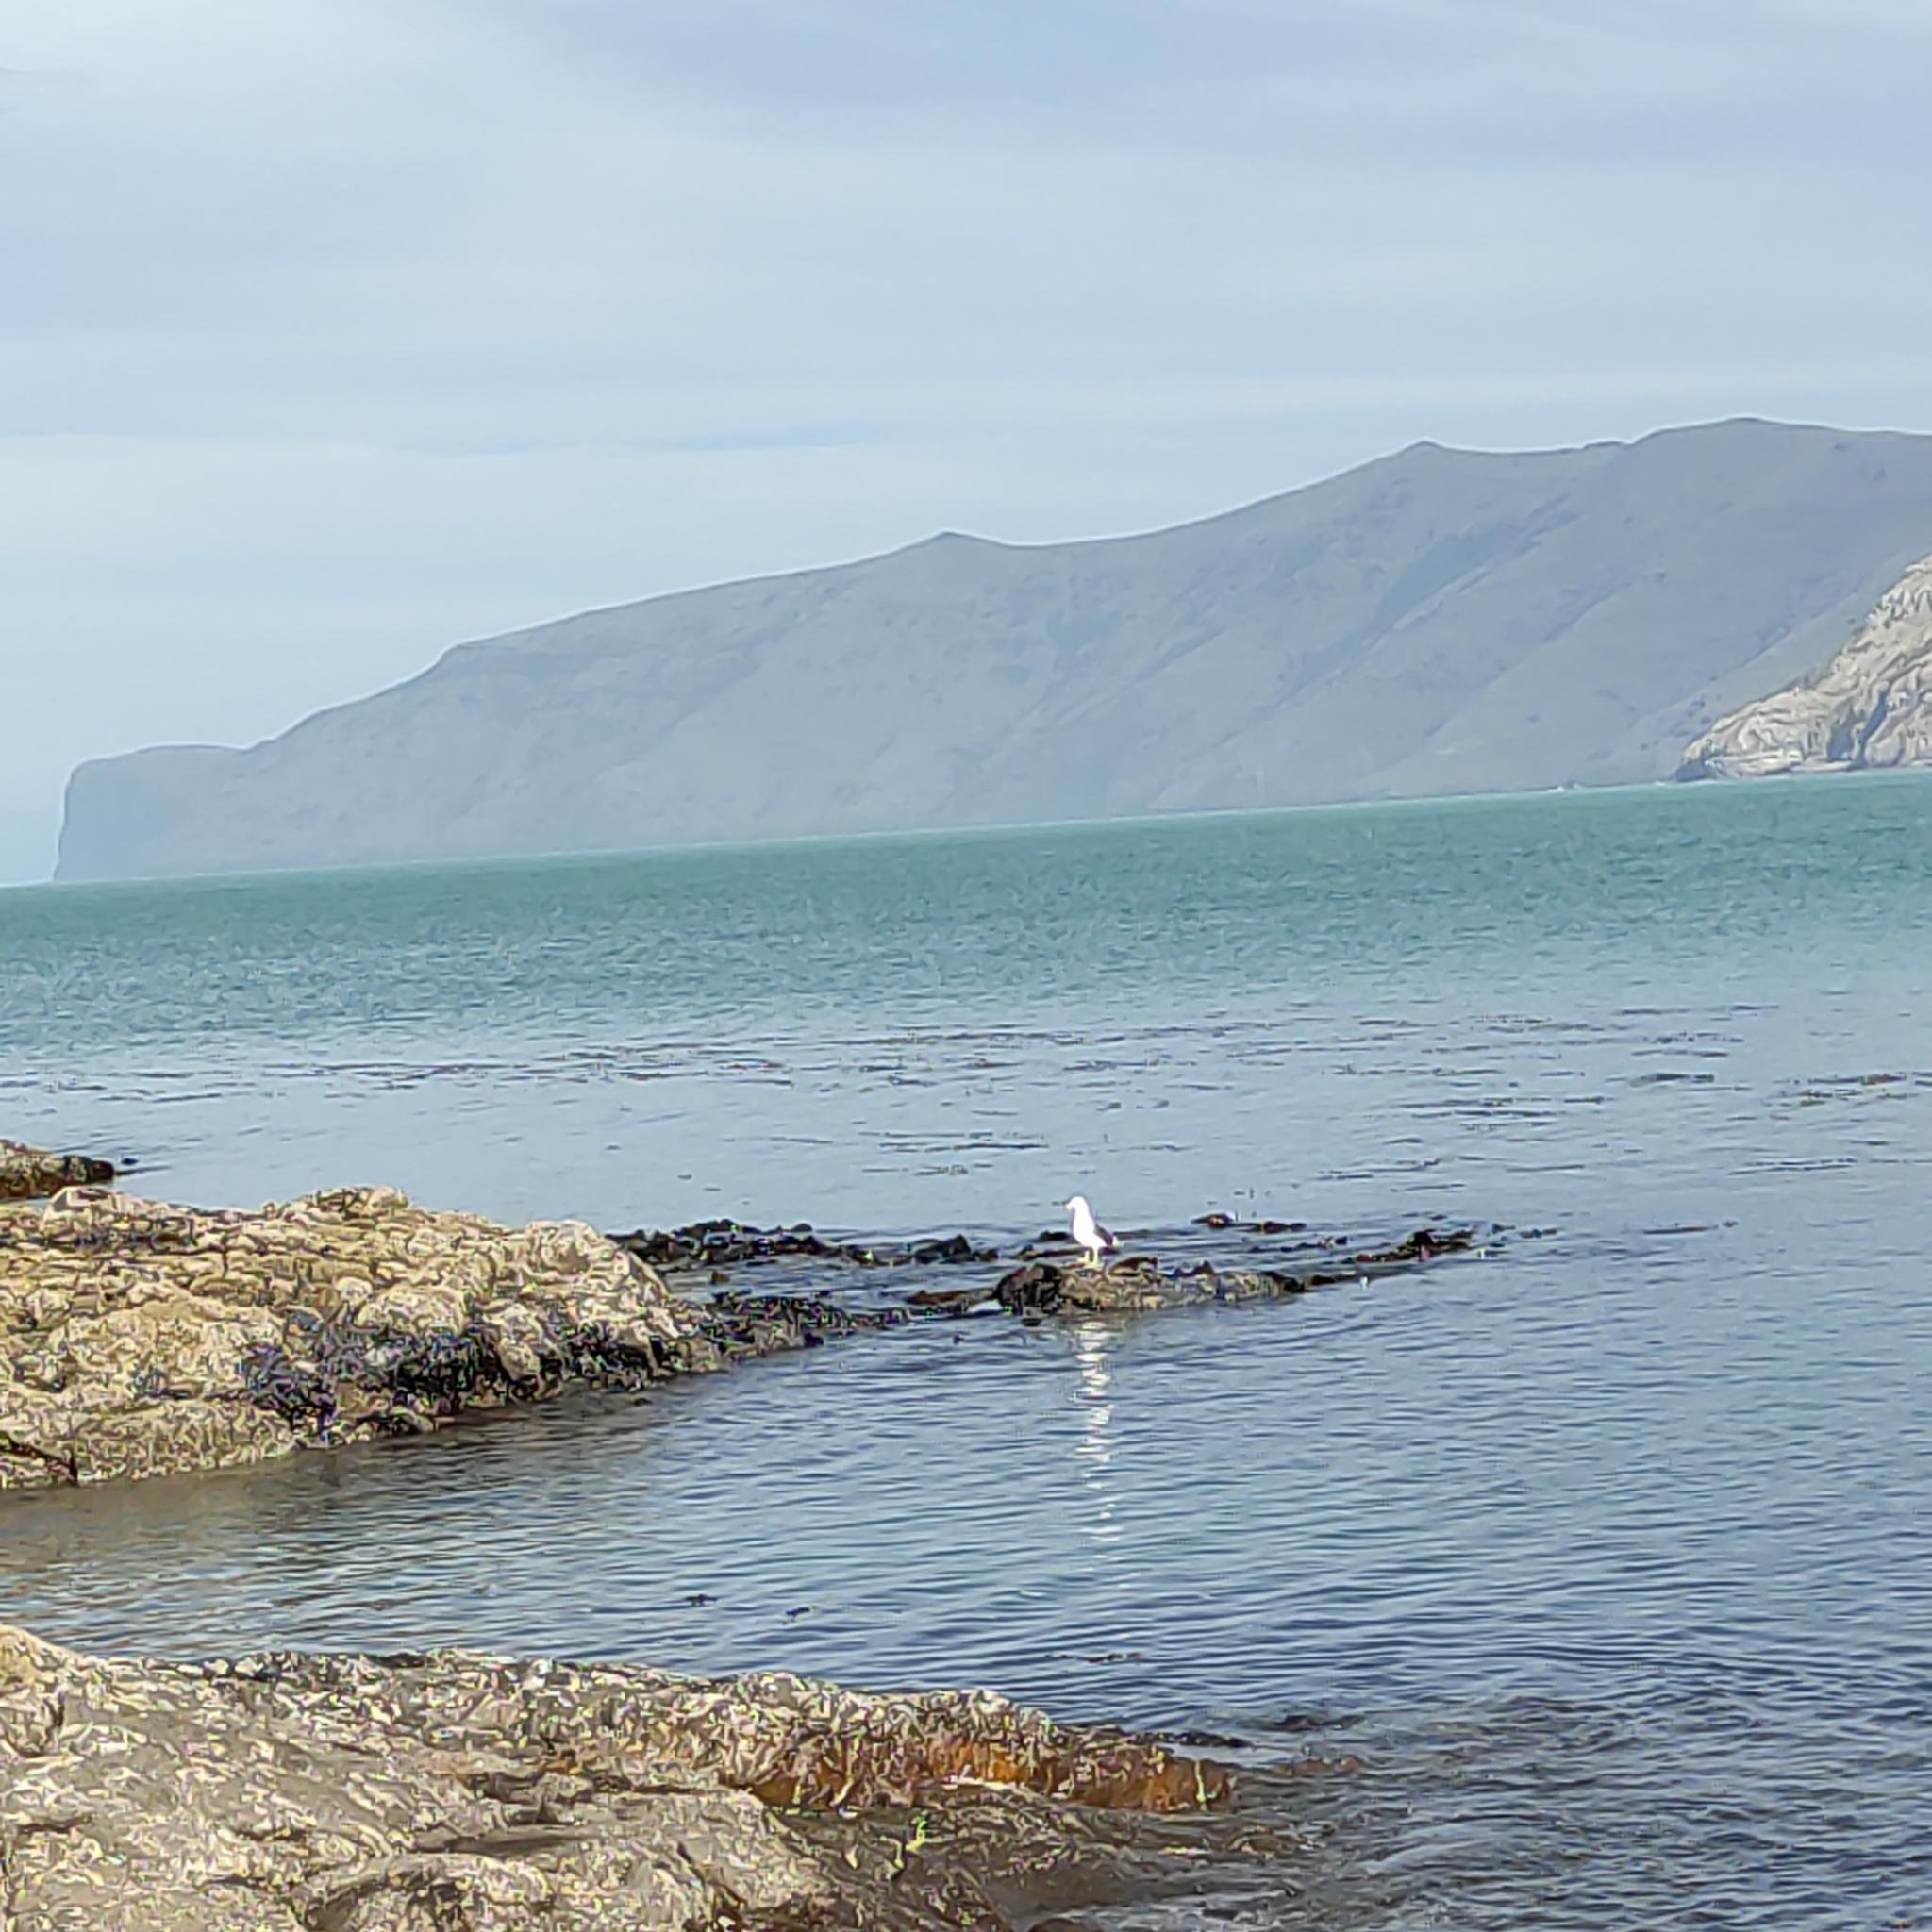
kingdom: Animalia
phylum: Chordata
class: Aves
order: Charadriiformes
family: Laridae
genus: Larus
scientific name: Larus dominicanus
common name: Kelp gull
